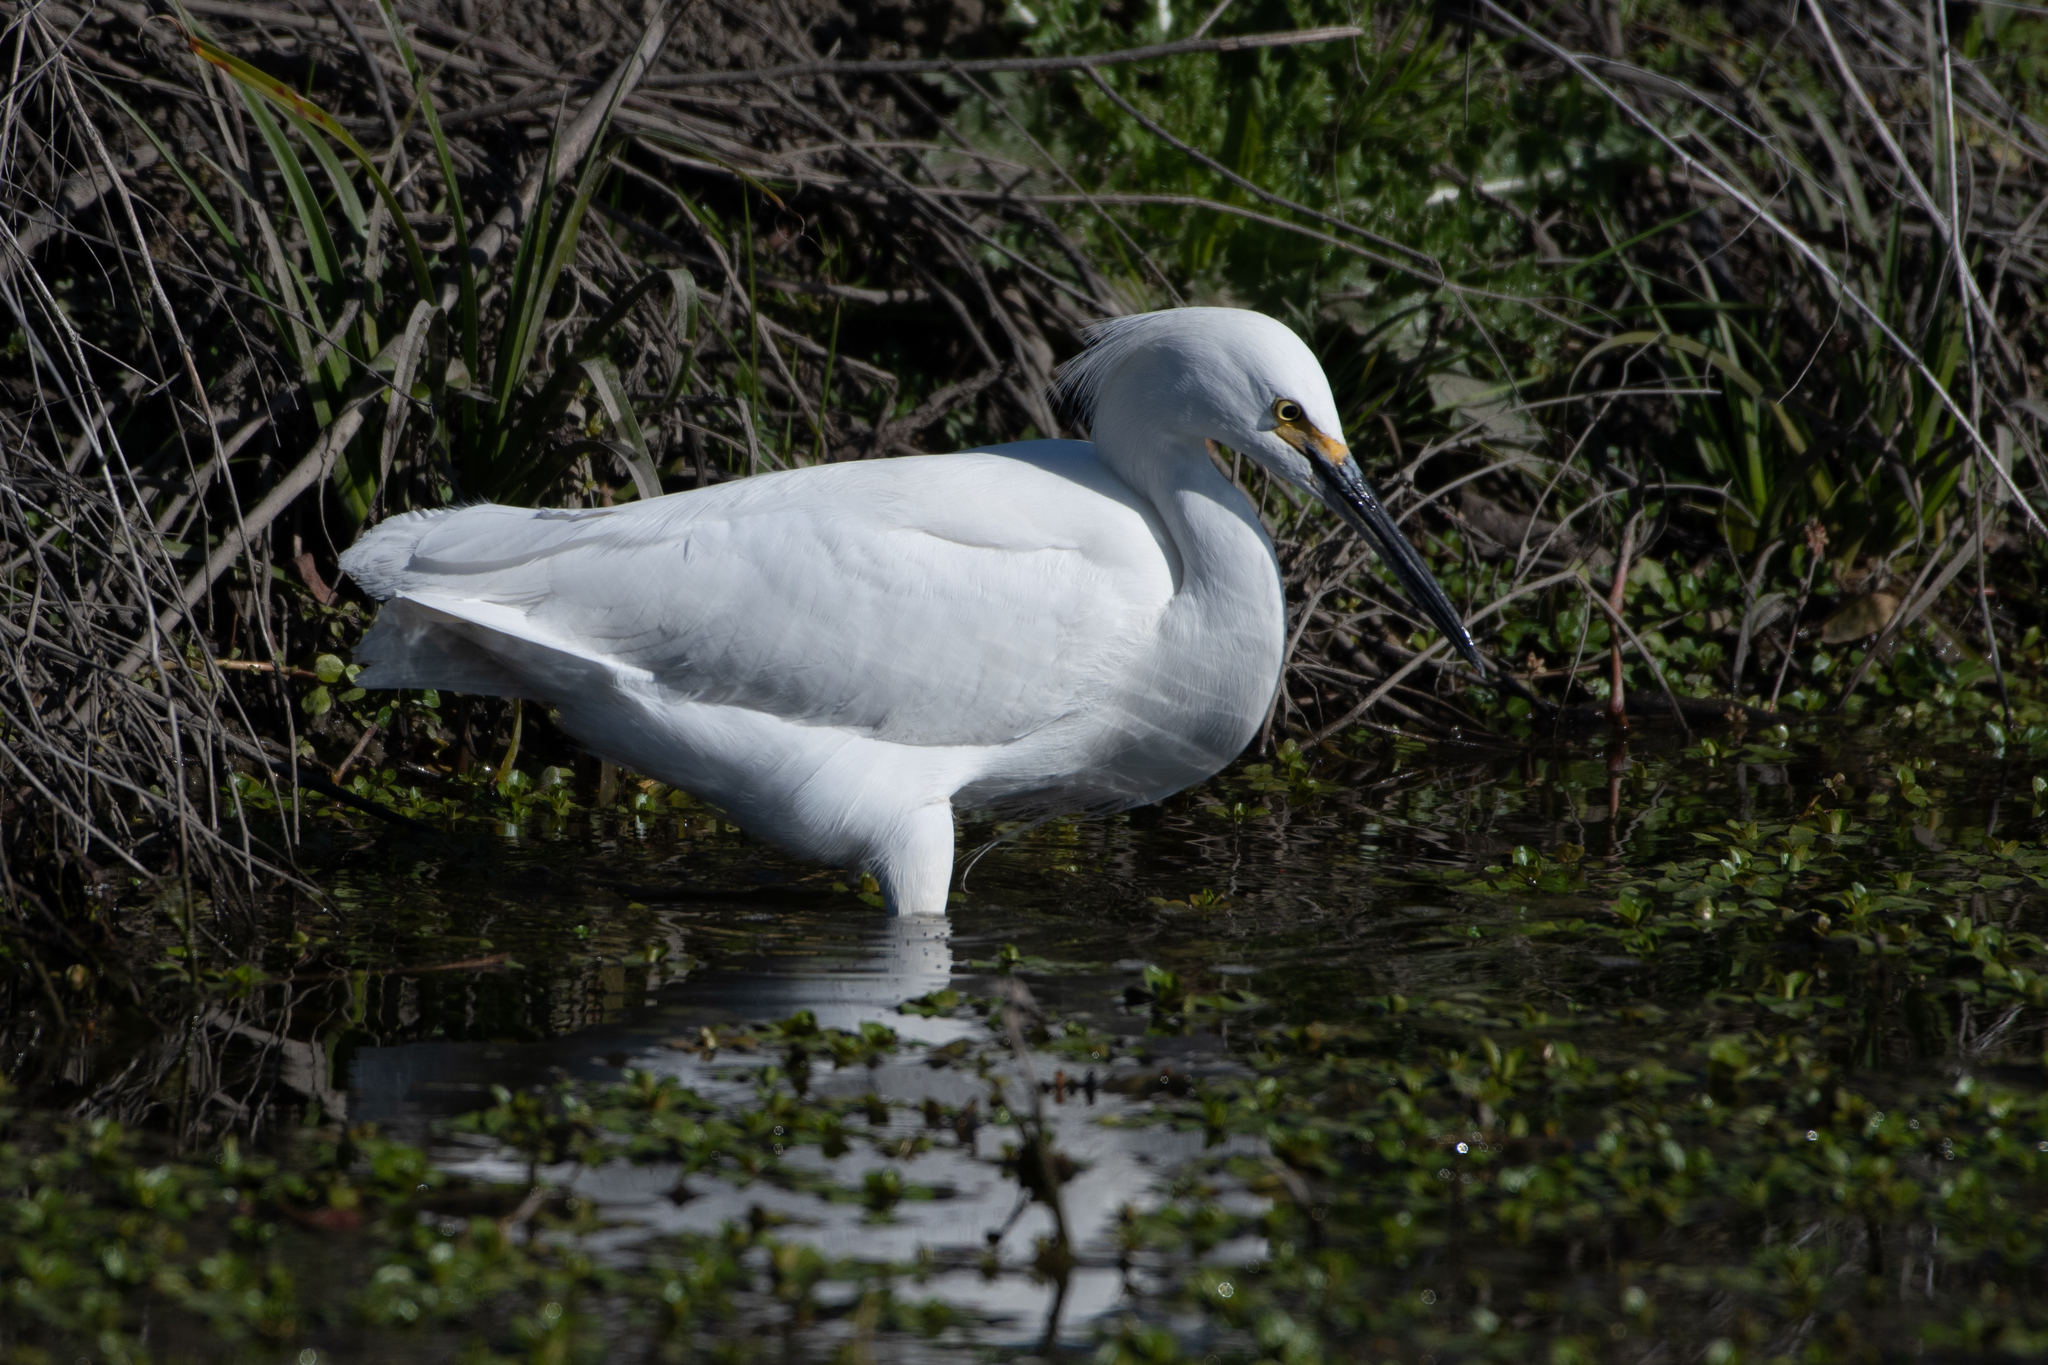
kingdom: Animalia
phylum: Chordata
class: Aves
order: Pelecaniformes
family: Ardeidae
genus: Egretta
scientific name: Egretta thula
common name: Snowy egret
